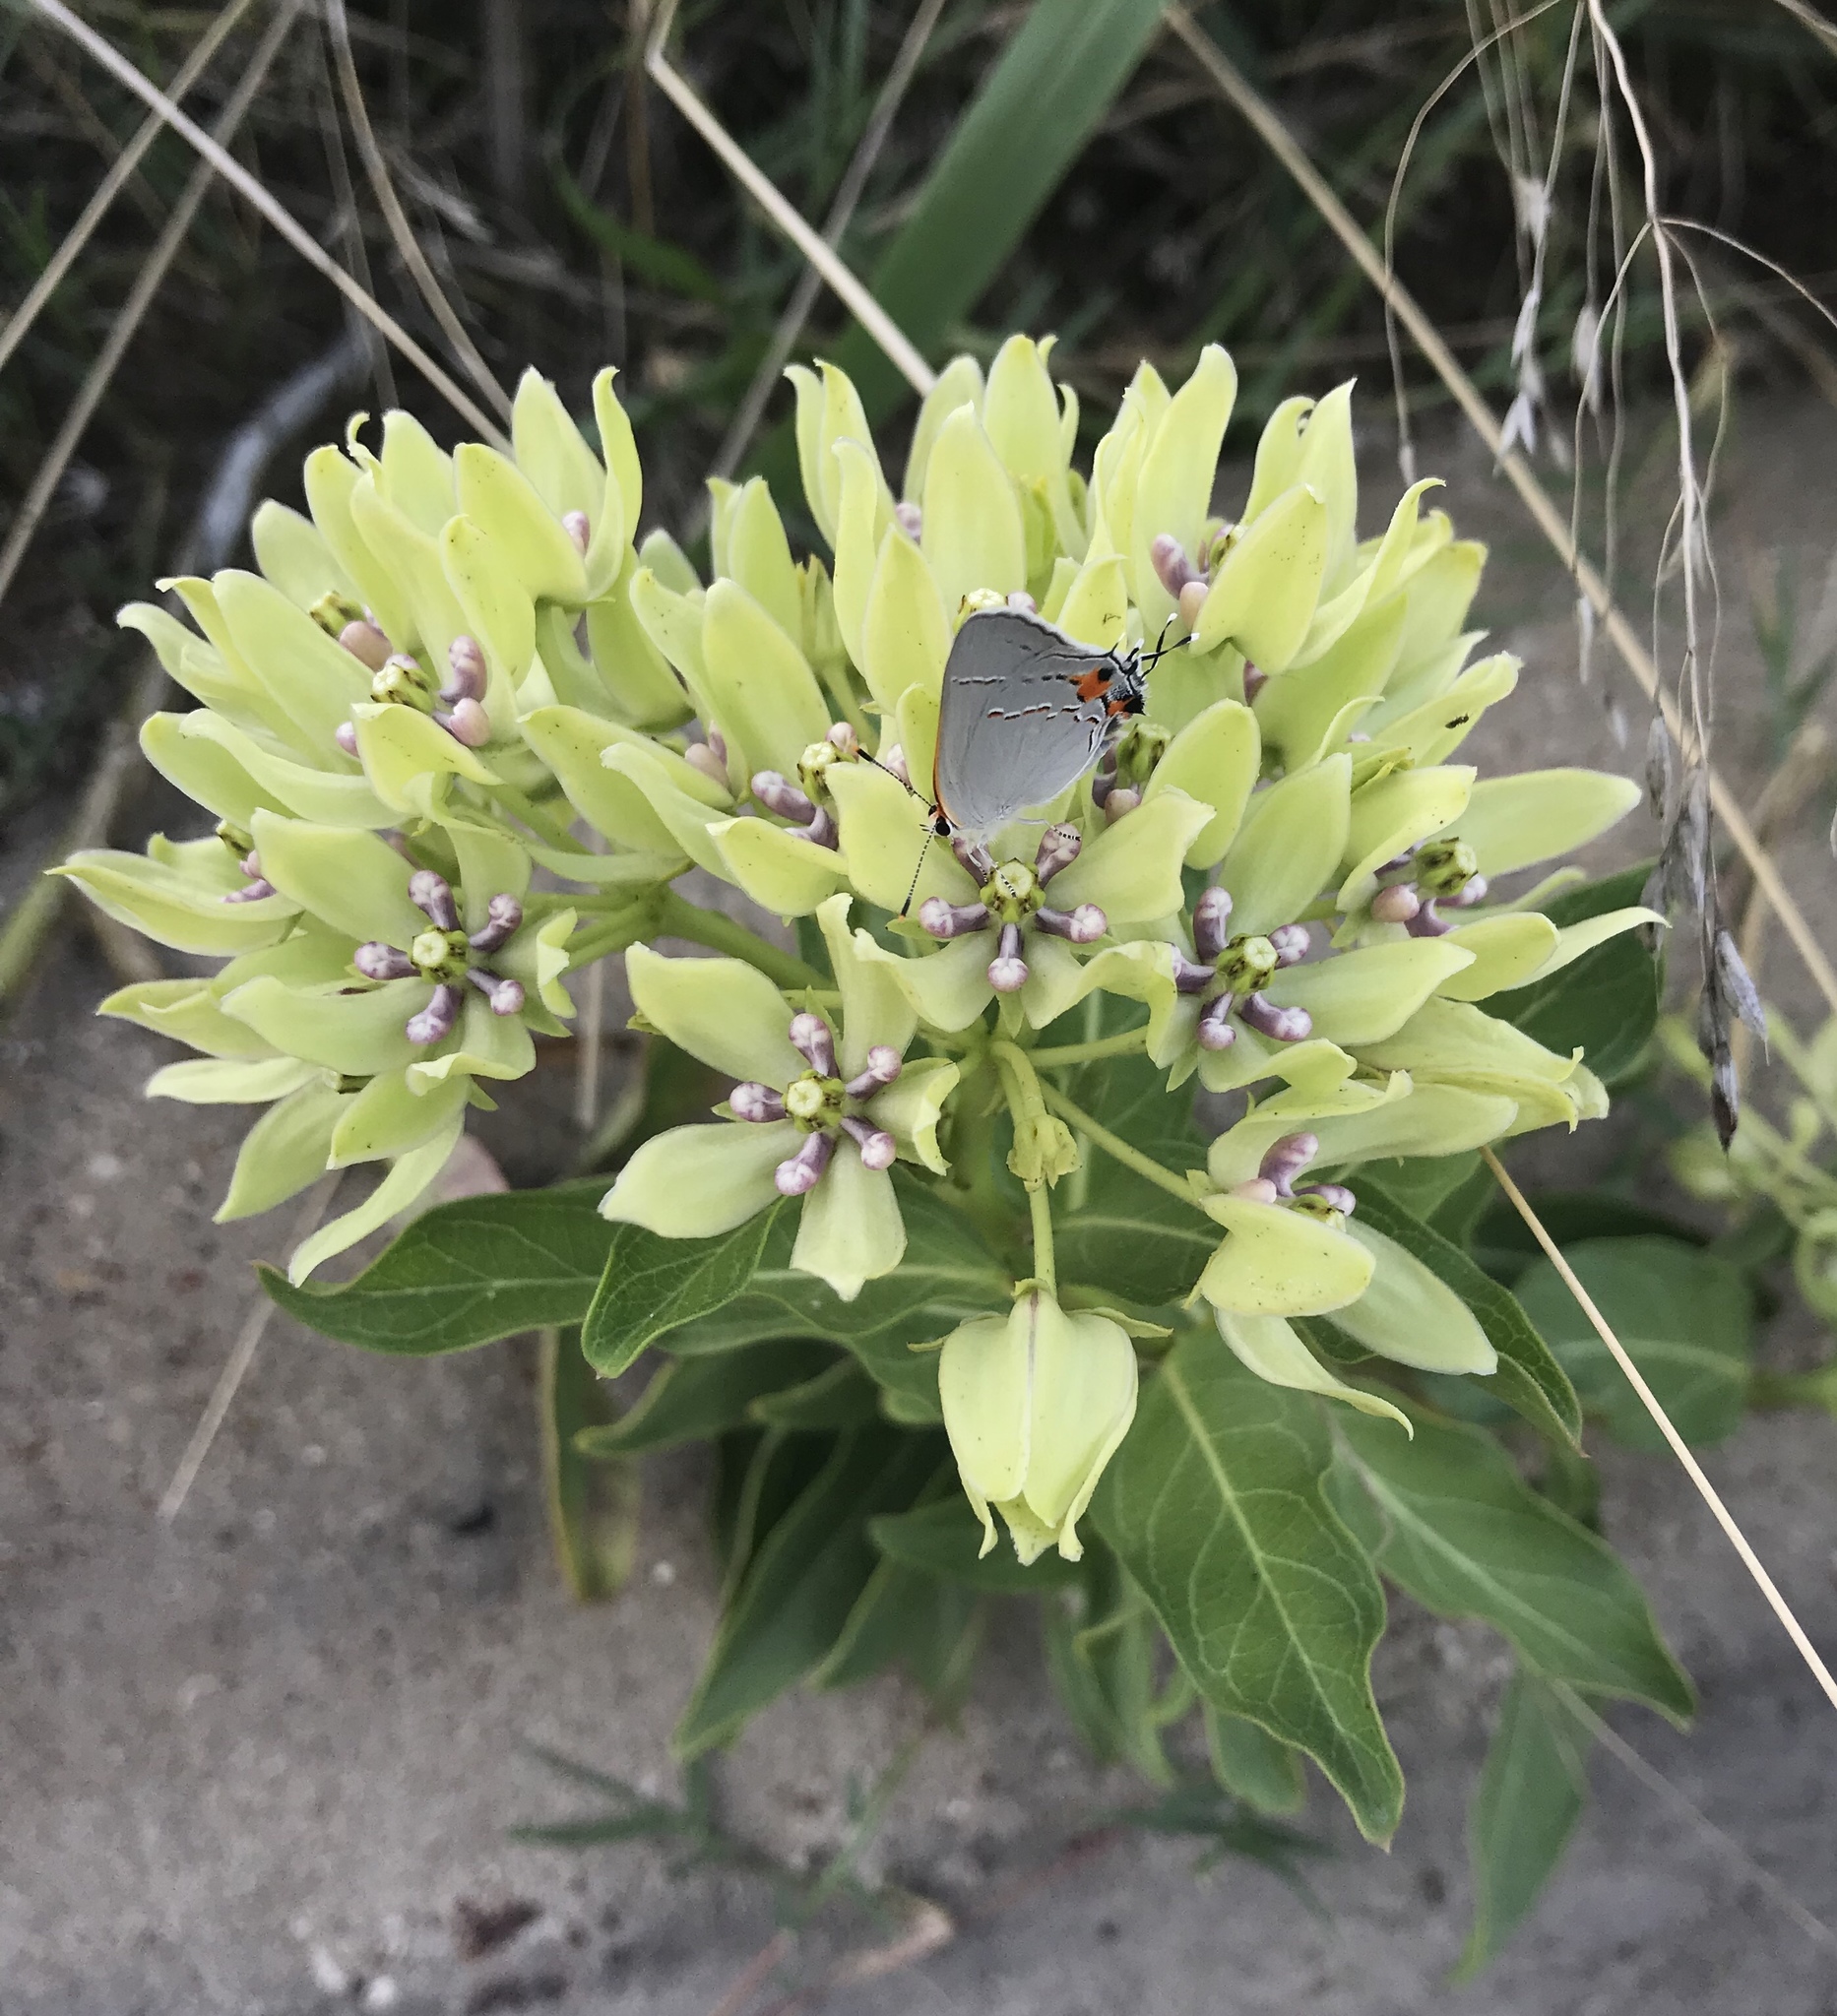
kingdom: Plantae
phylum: Tracheophyta
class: Magnoliopsida
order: Gentianales
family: Apocynaceae
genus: Asclepias
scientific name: Asclepias viridis
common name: Antelope-horns
